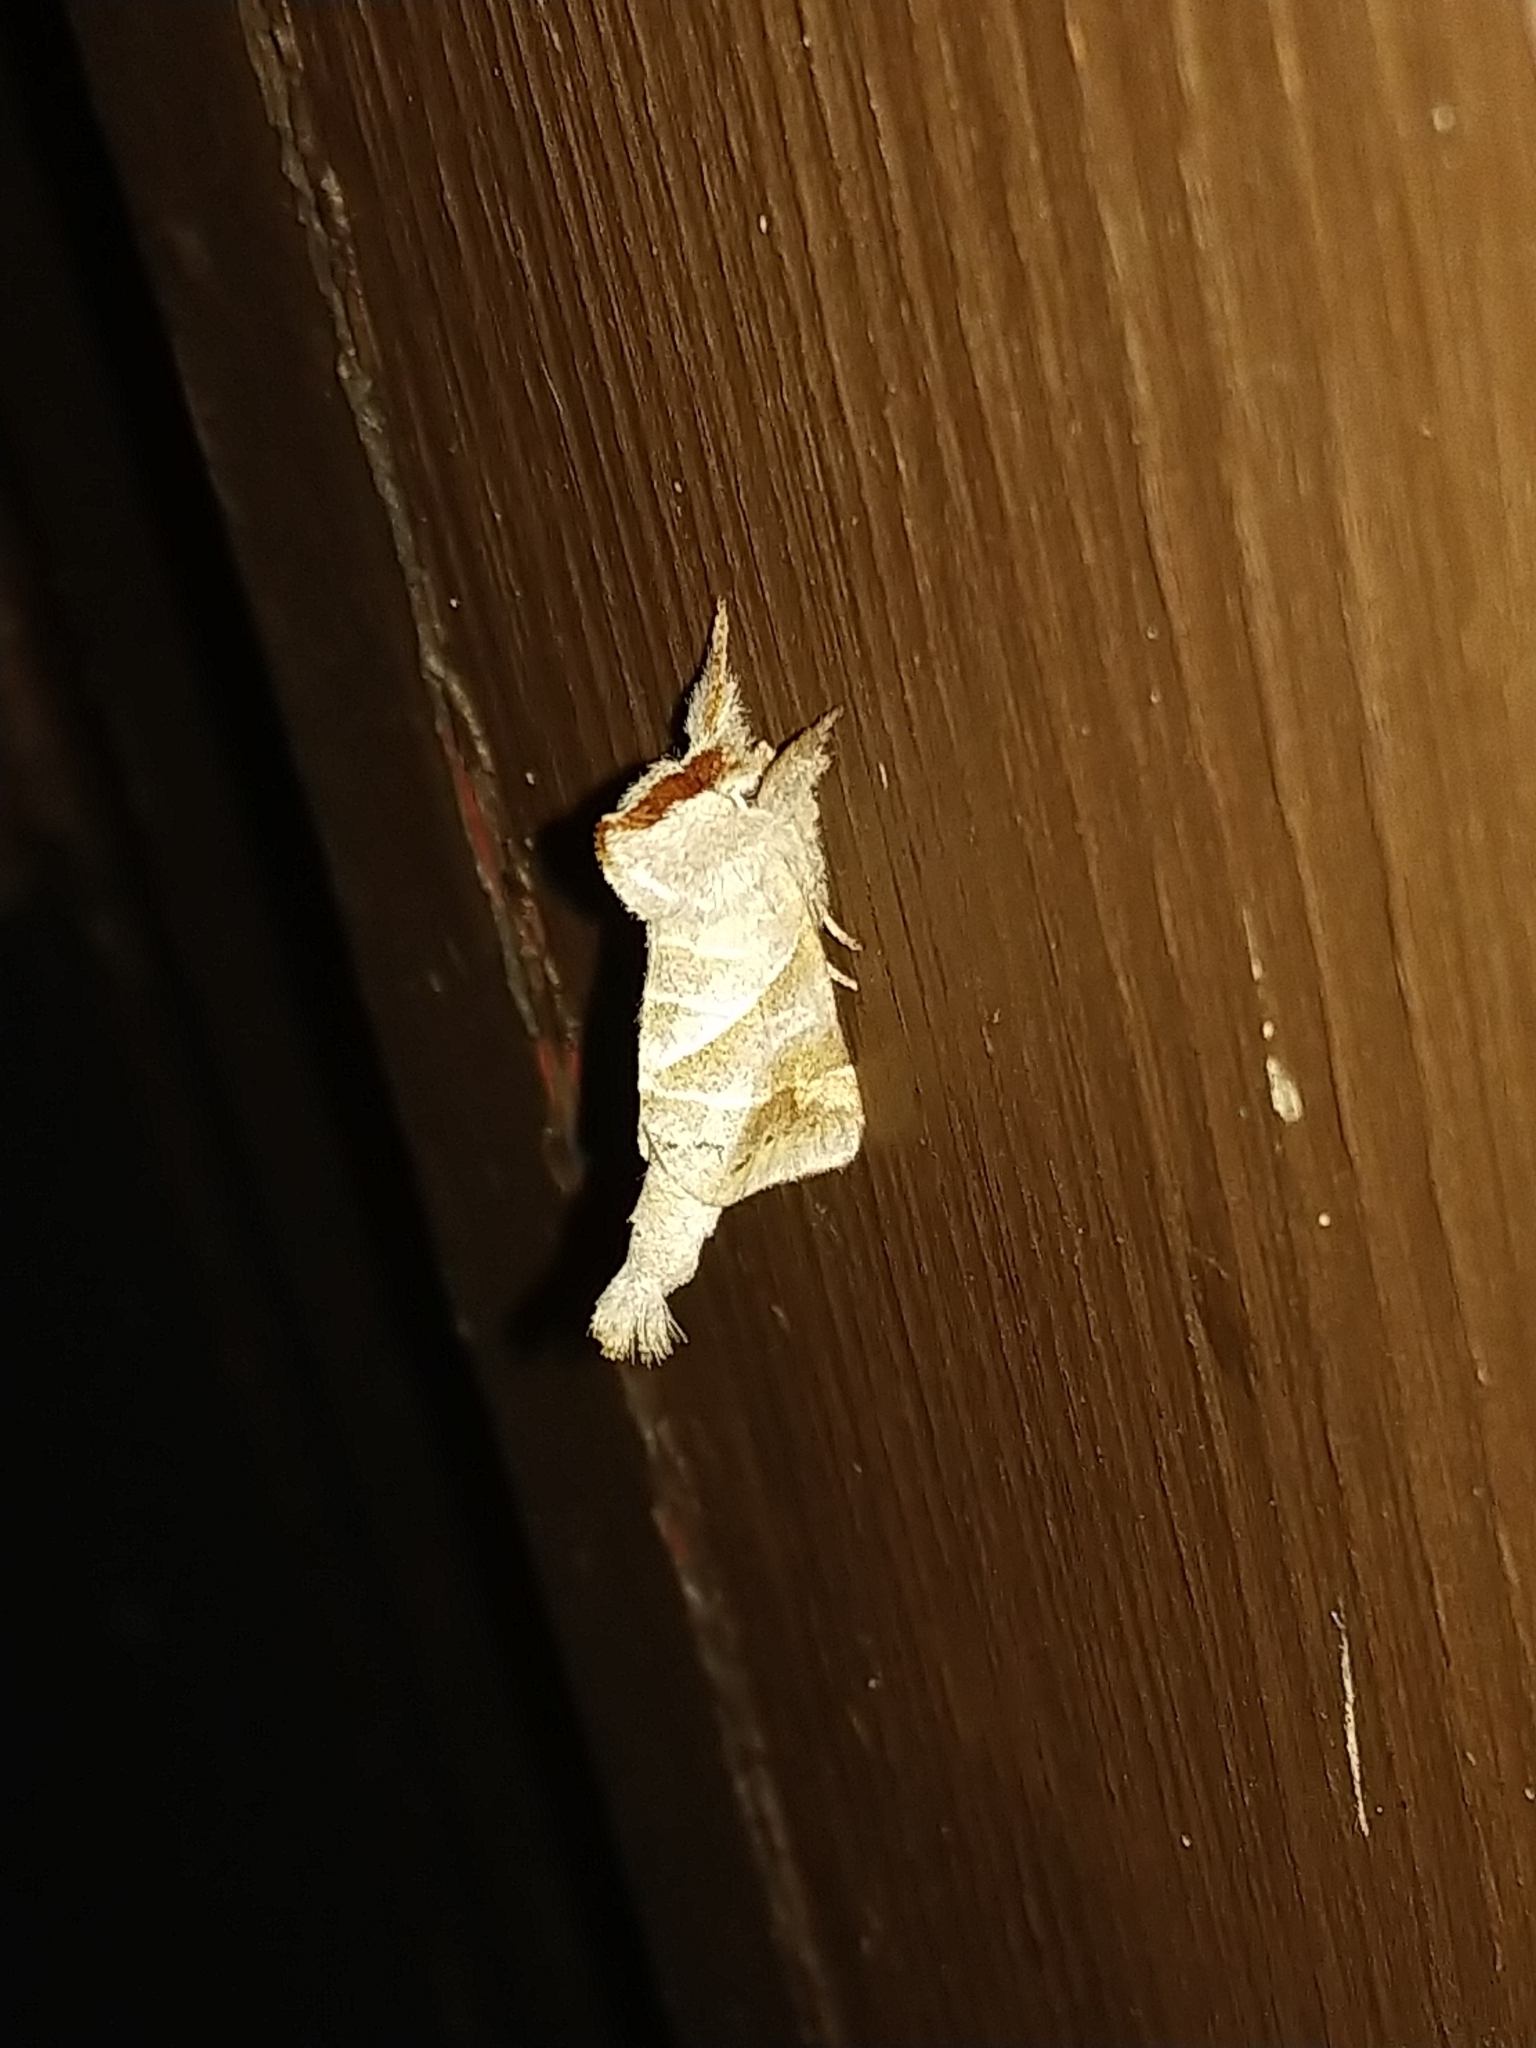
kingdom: Animalia
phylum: Arthropoda
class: Insecta
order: Lepidoptera
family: Notodontidae
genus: Clostera
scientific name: Clostera inclusa
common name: Angle-lined prominent
